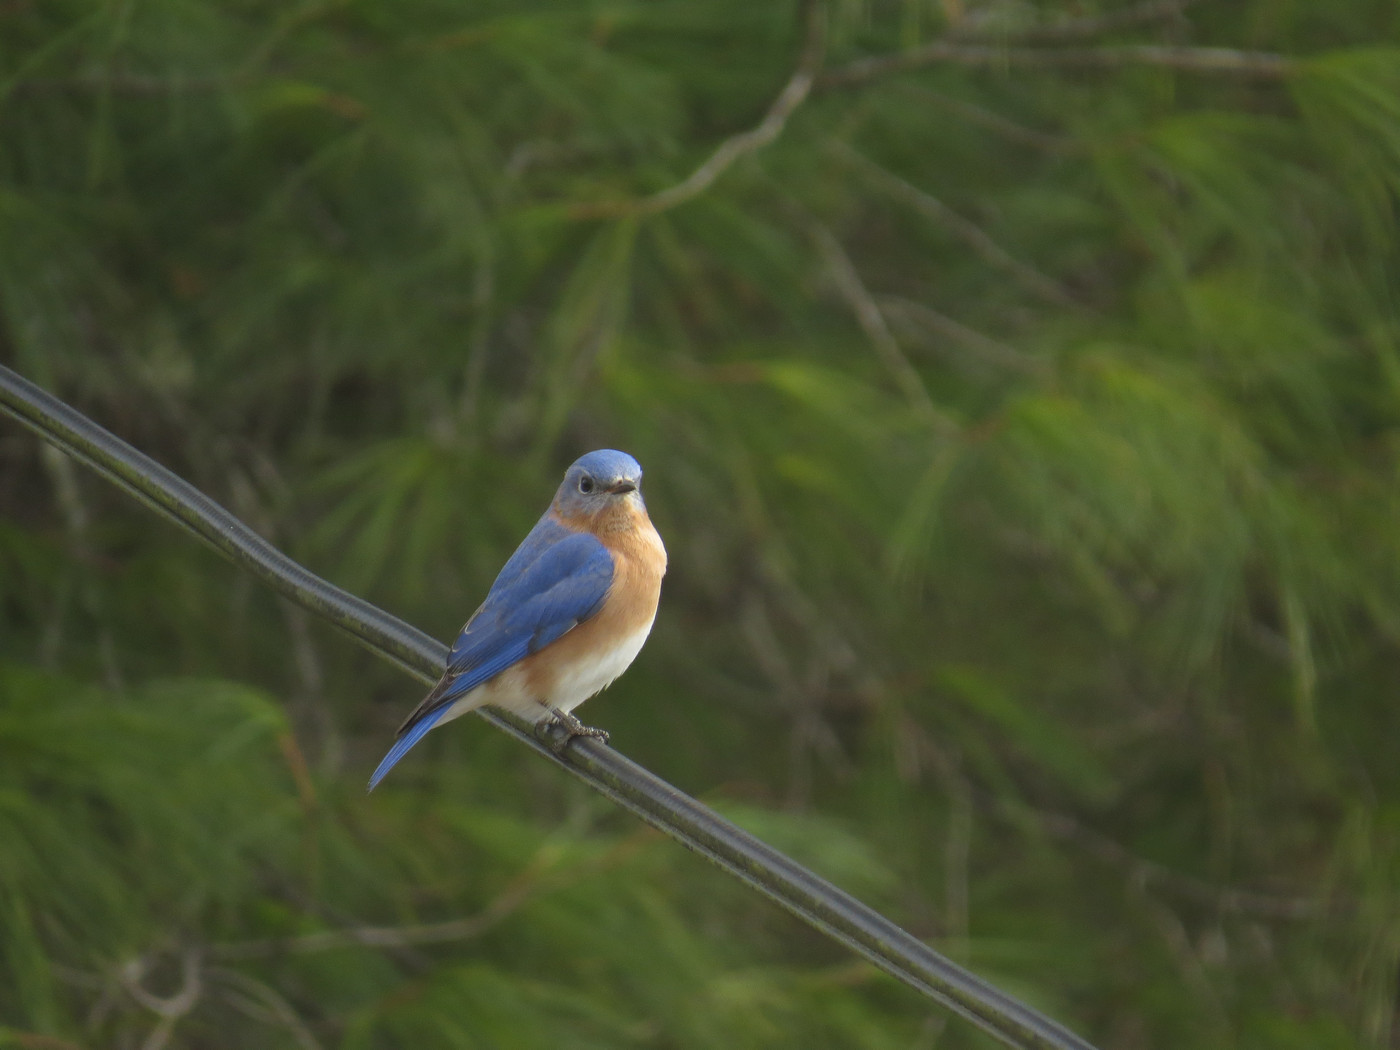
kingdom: Animalia
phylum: Chordata
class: Aves
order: Passeriformes
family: Turdidae
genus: Sialia
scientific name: Sialia sialis
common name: Eastern bluebird
